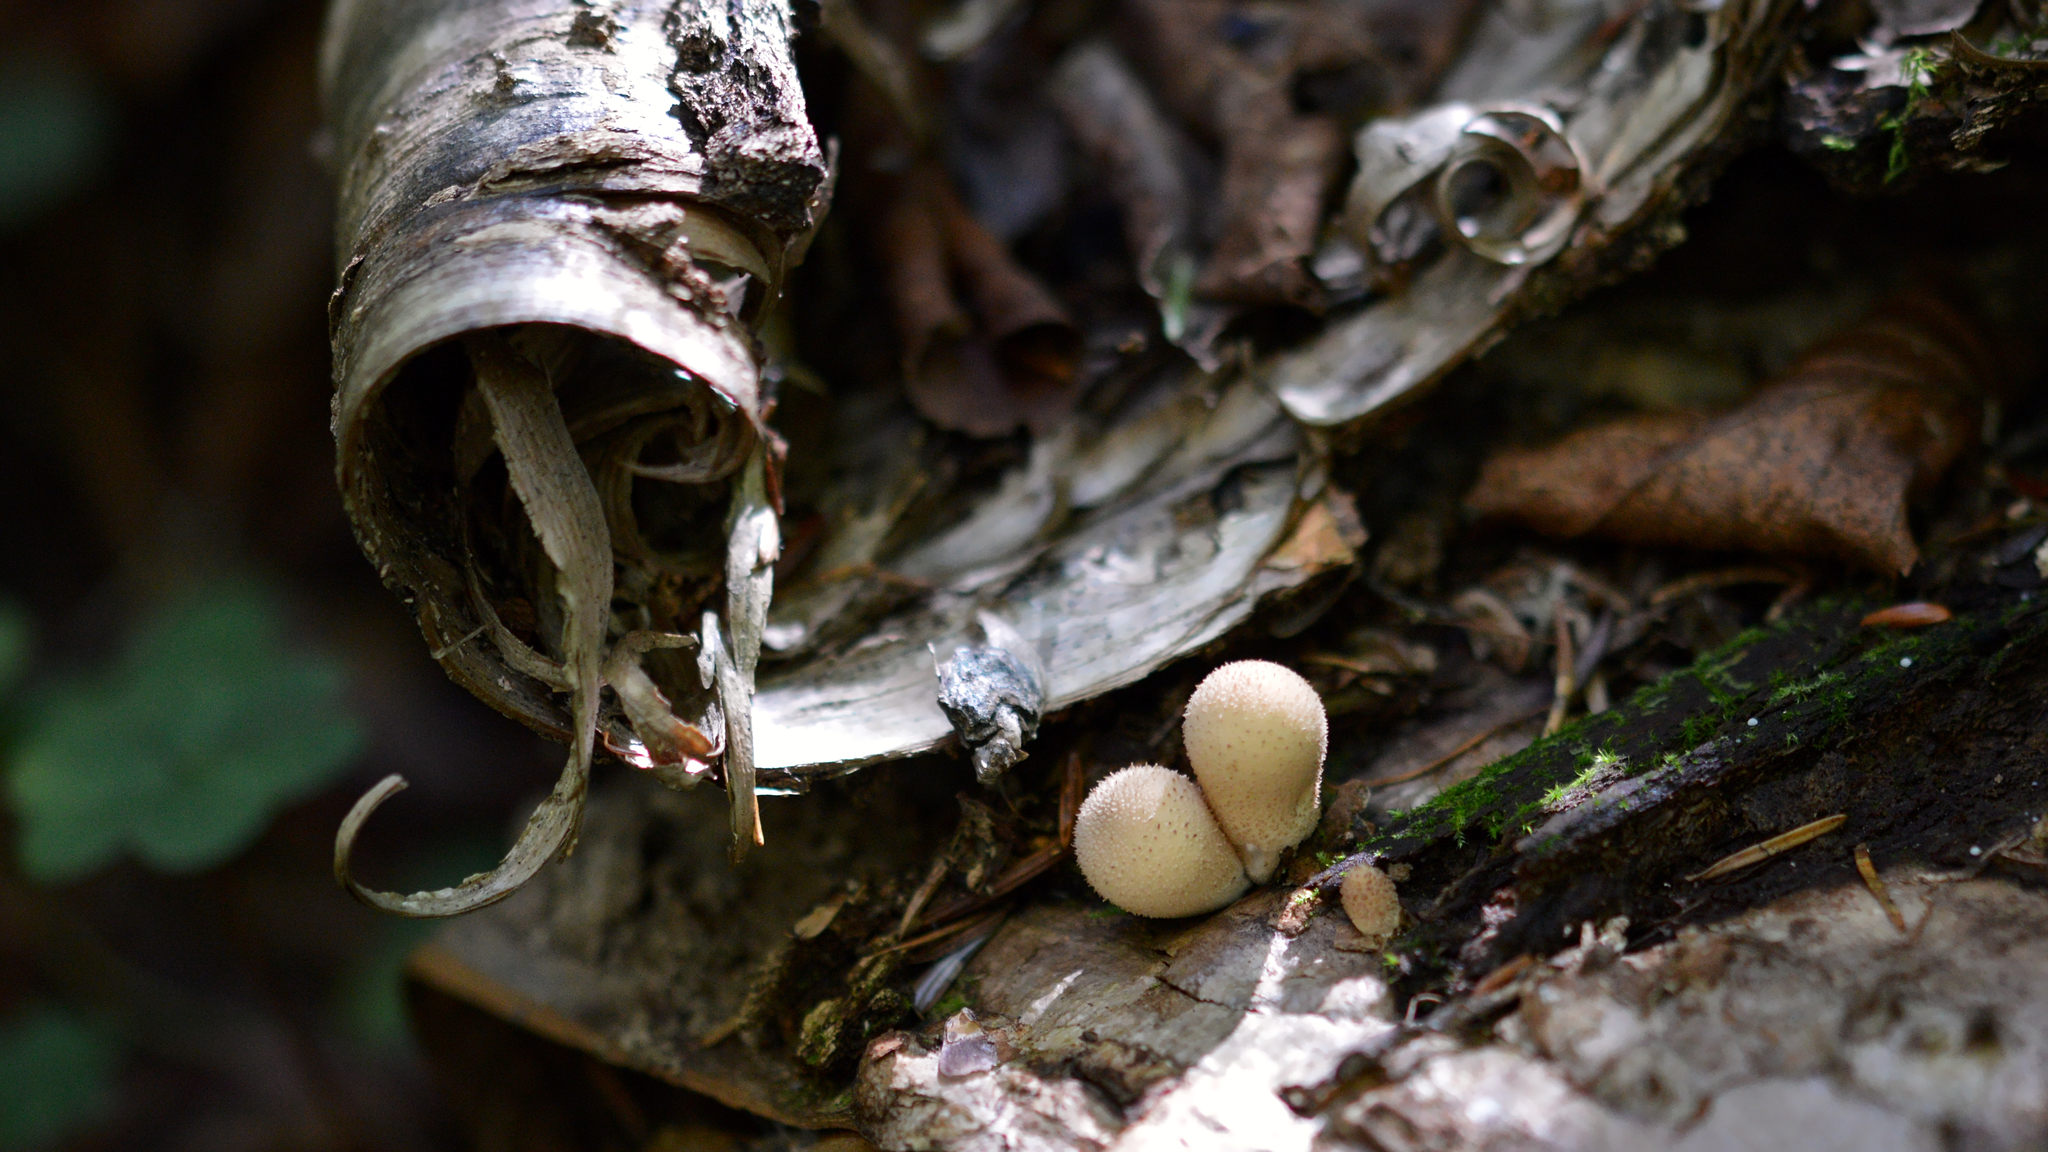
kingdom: Fungi
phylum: Basidiomycota
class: Agaricomycetes
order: Agaricales
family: Lycoperdaceae
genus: Apioperdon
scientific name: Apioperdon pyriforme
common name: Pear-shaped puffball
